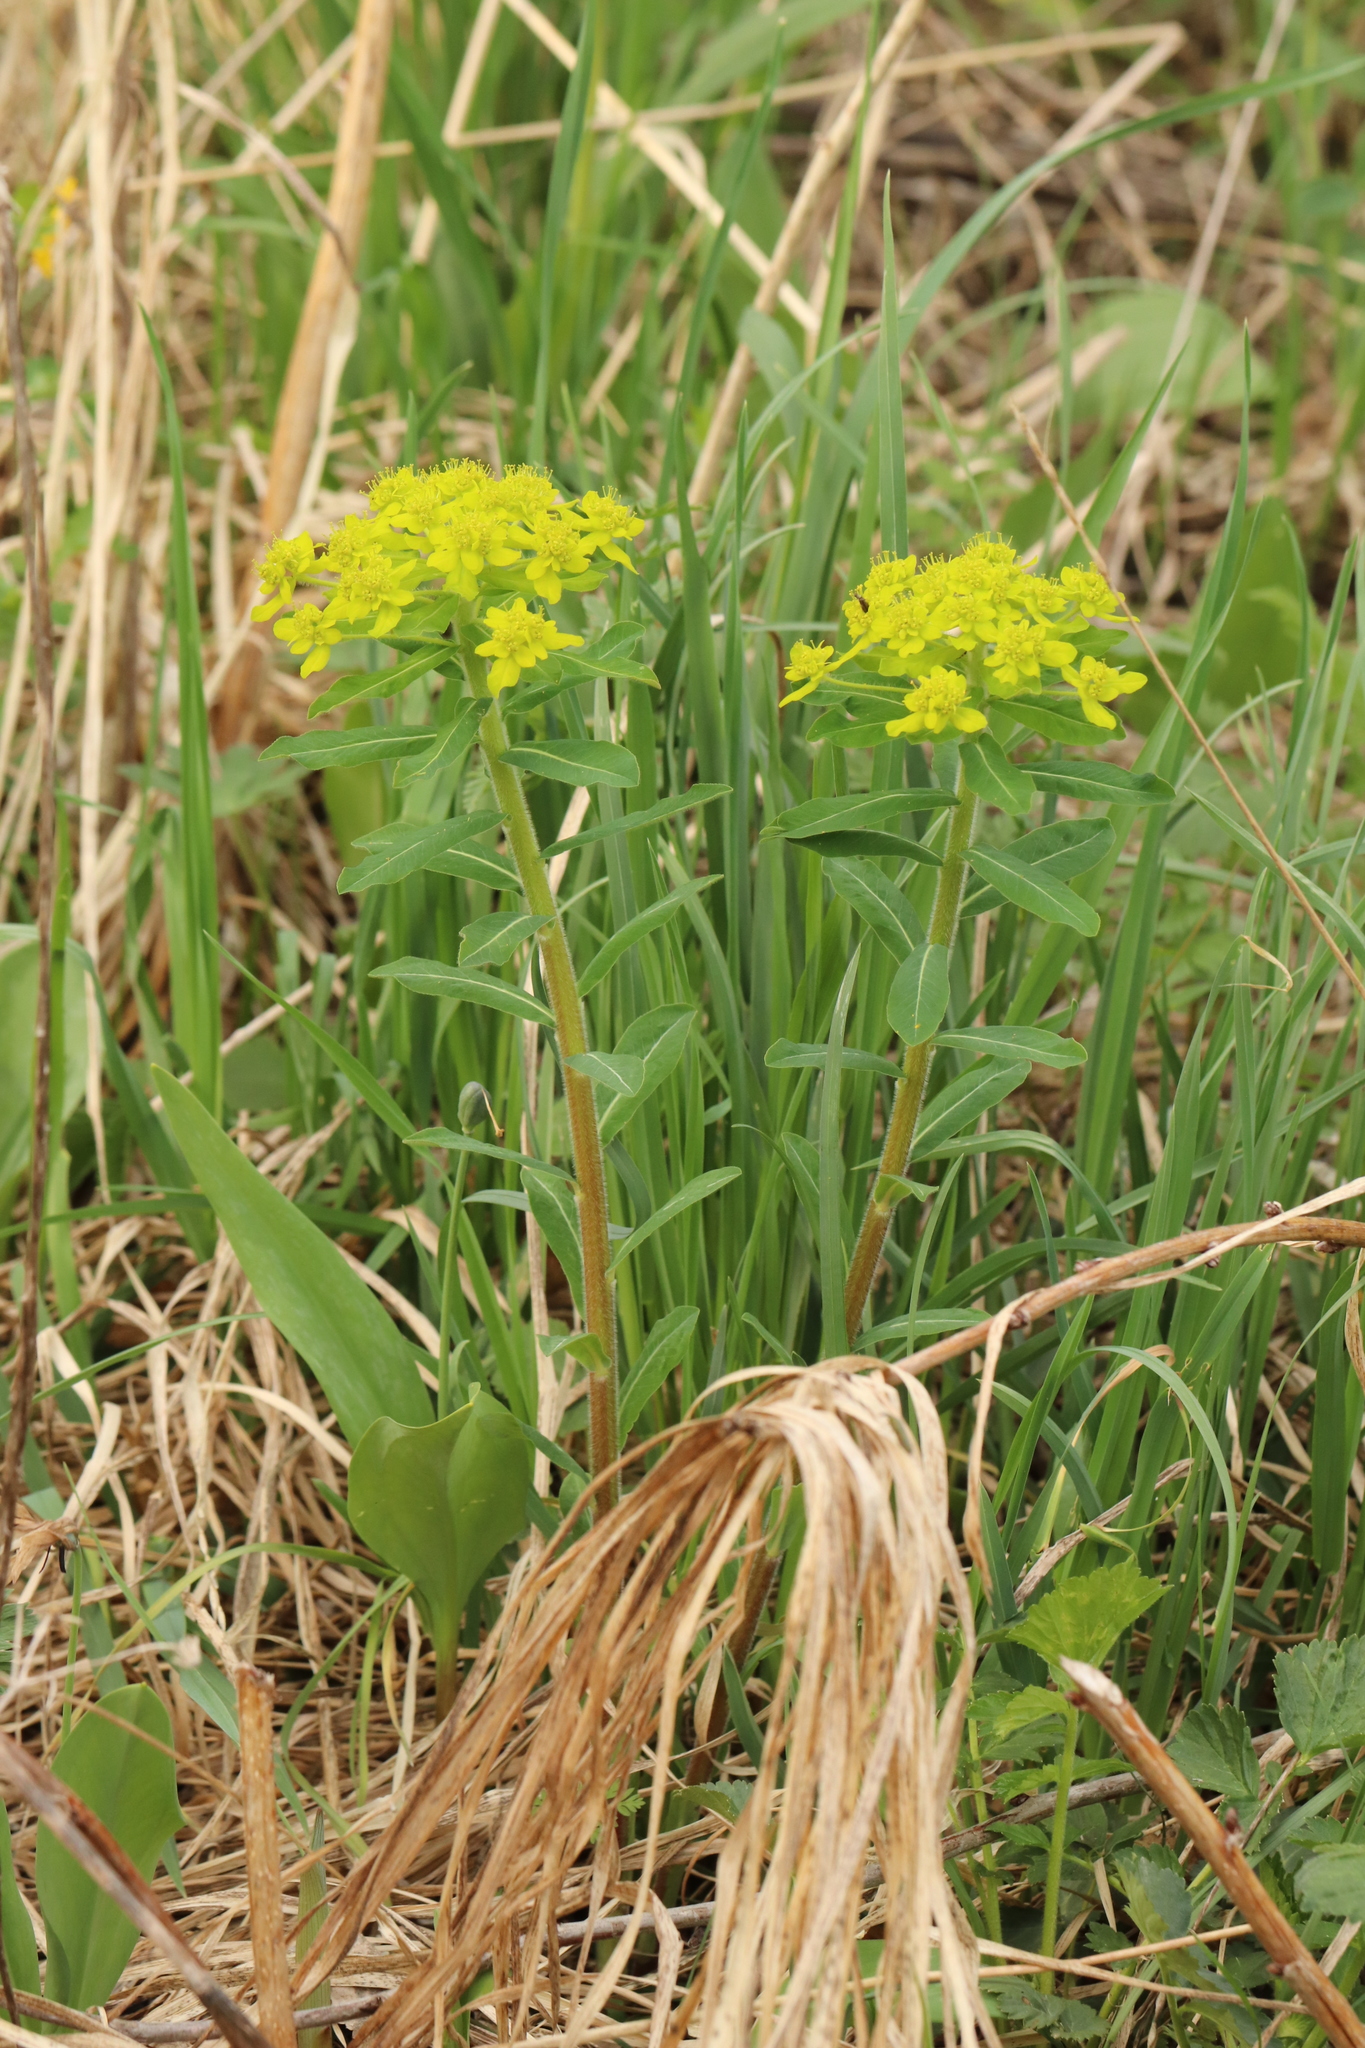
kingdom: Plantae
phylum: Tracheophyta
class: Magnoliopsida
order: Malpighiales
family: Euphorbiaceae
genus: Euphorbia
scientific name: Euphorbia pilosa
